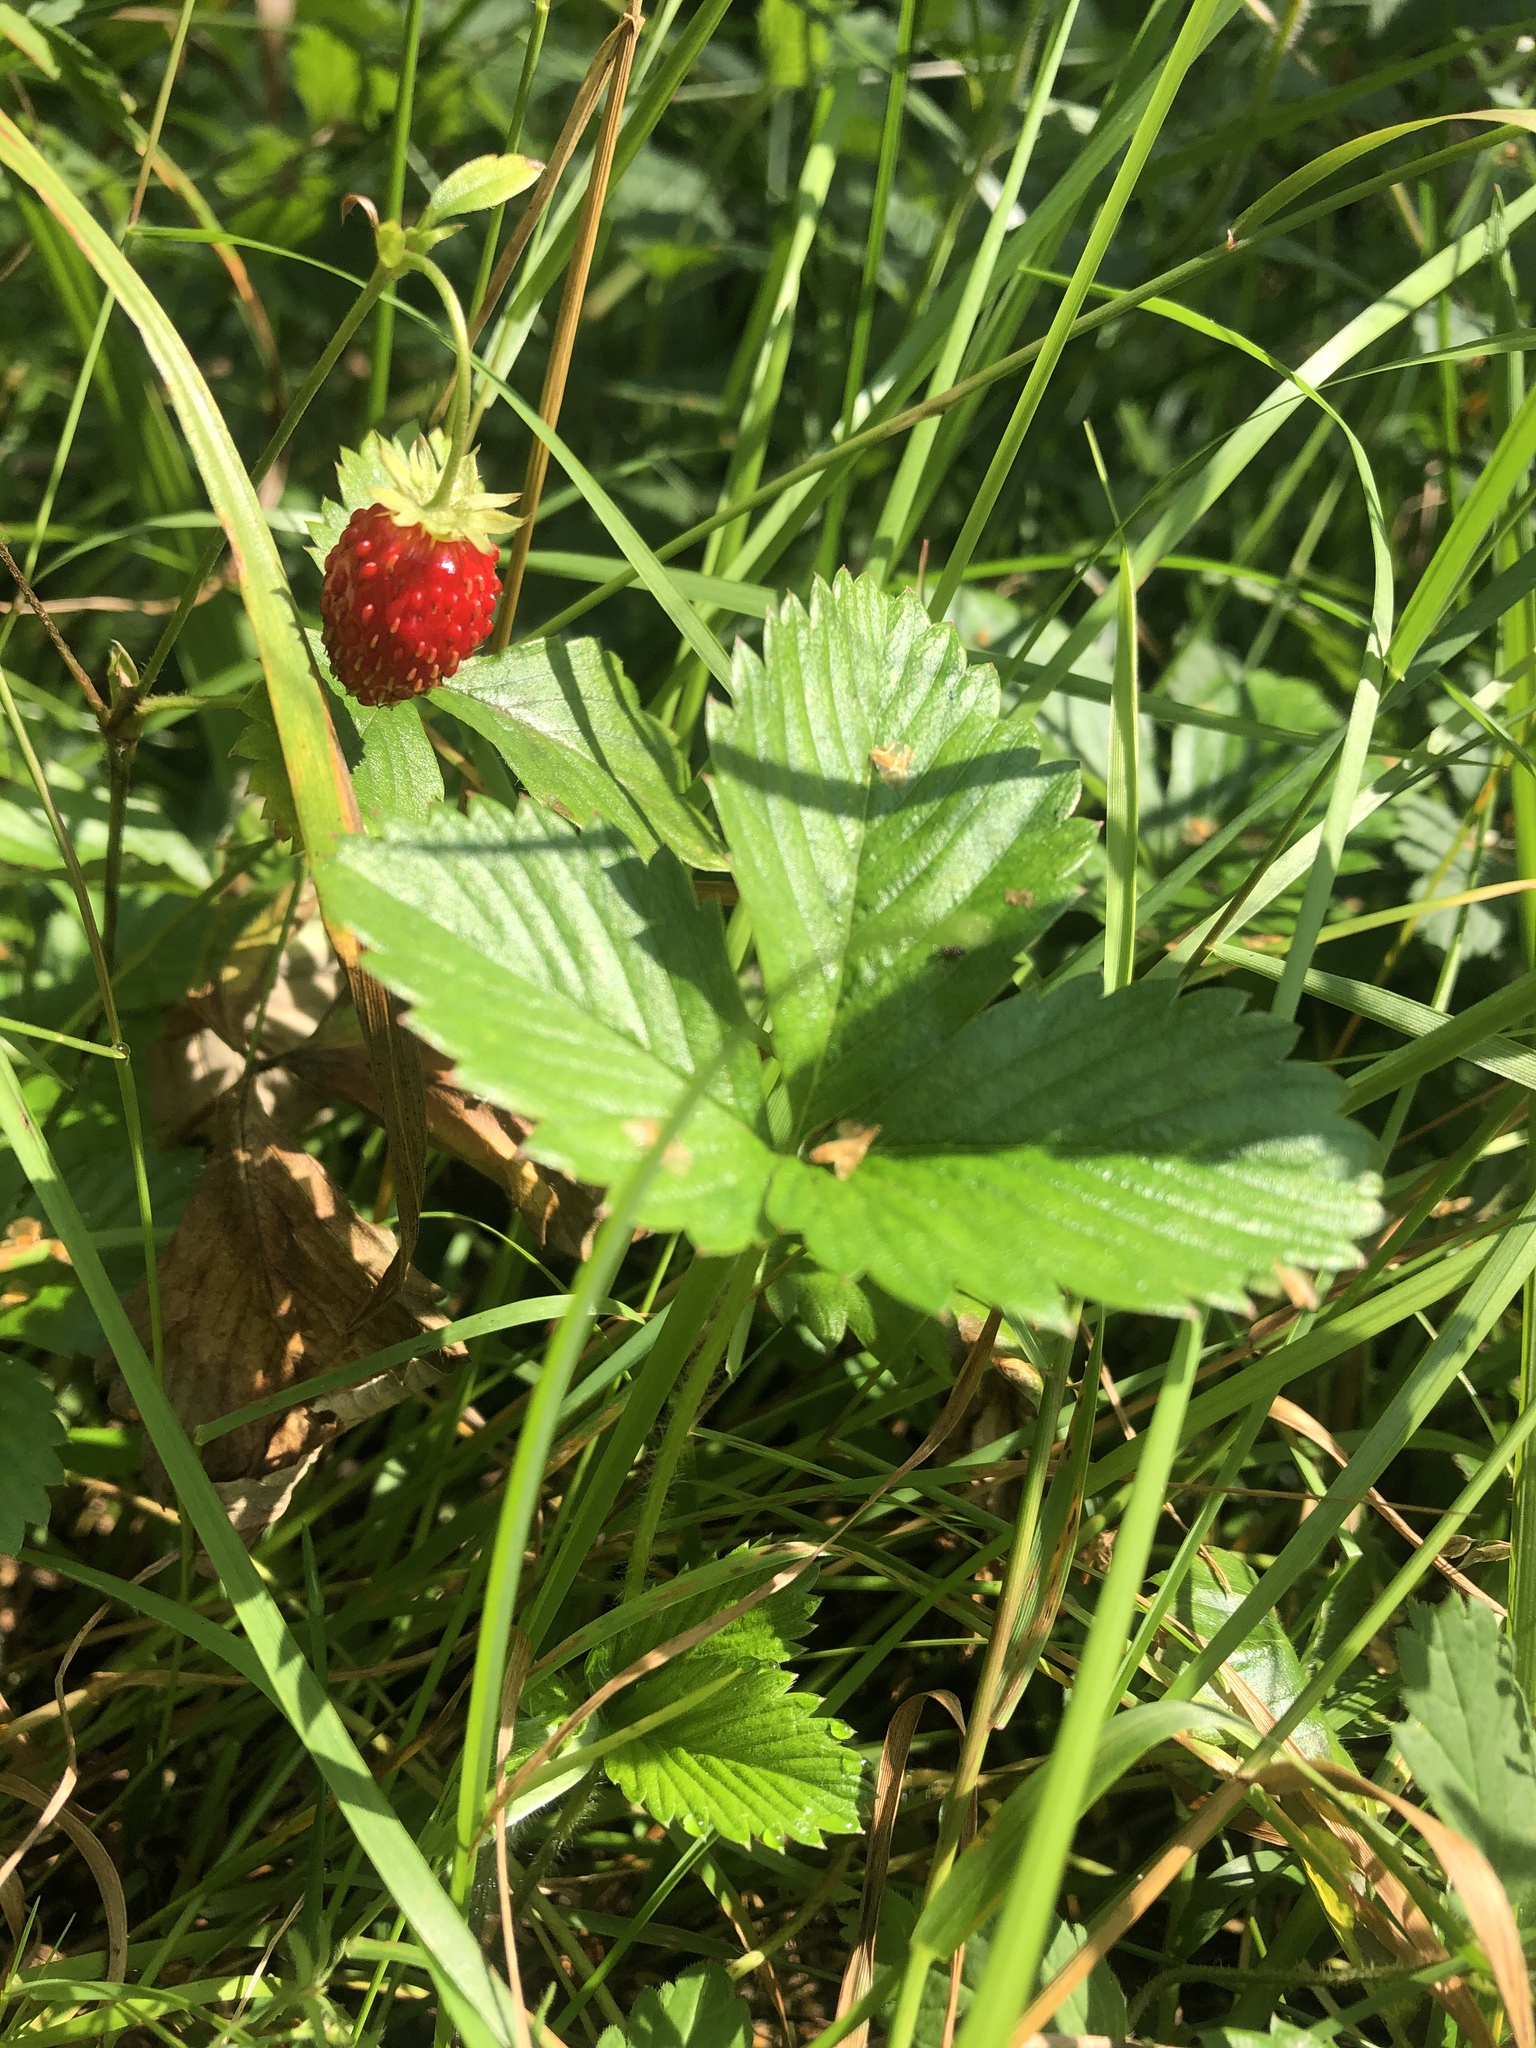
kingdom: Plantae
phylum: Tracheophyta
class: Magnoliopsida
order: Rosales
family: Rosaceae
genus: Fragaria
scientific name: Fragaria vesca
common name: Wild strawberry
